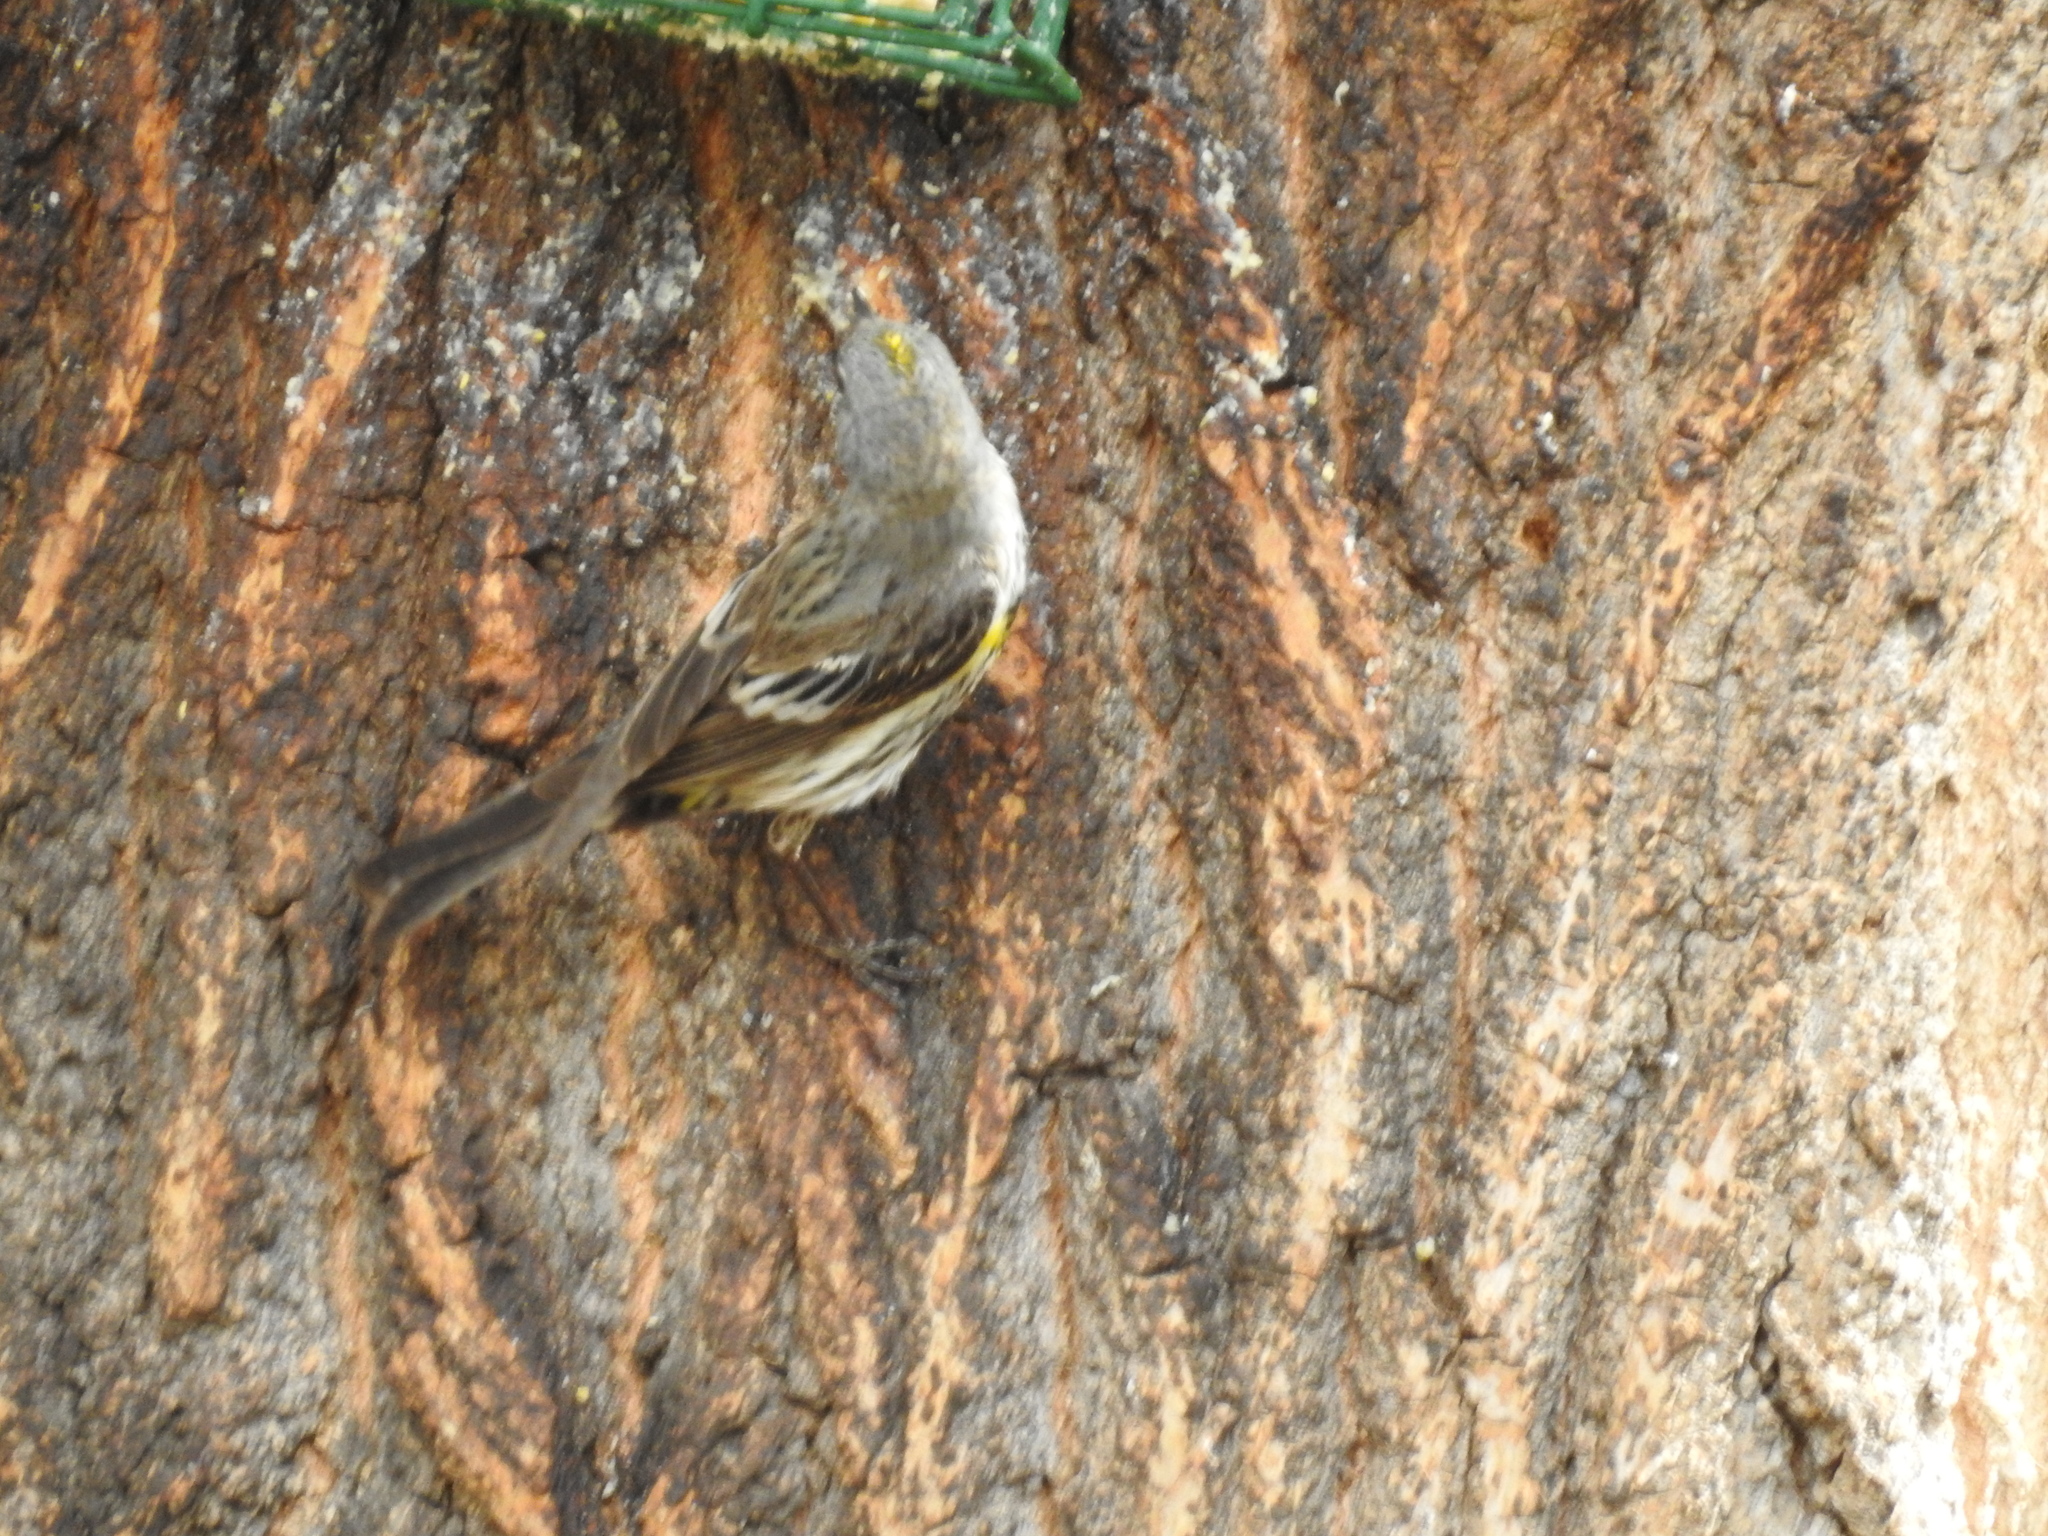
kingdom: Animalia
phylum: Chordata
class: Aves
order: Passeriformes
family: Parulidae
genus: Setophaga
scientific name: Setophaga coronata
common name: Myrtle warbler
